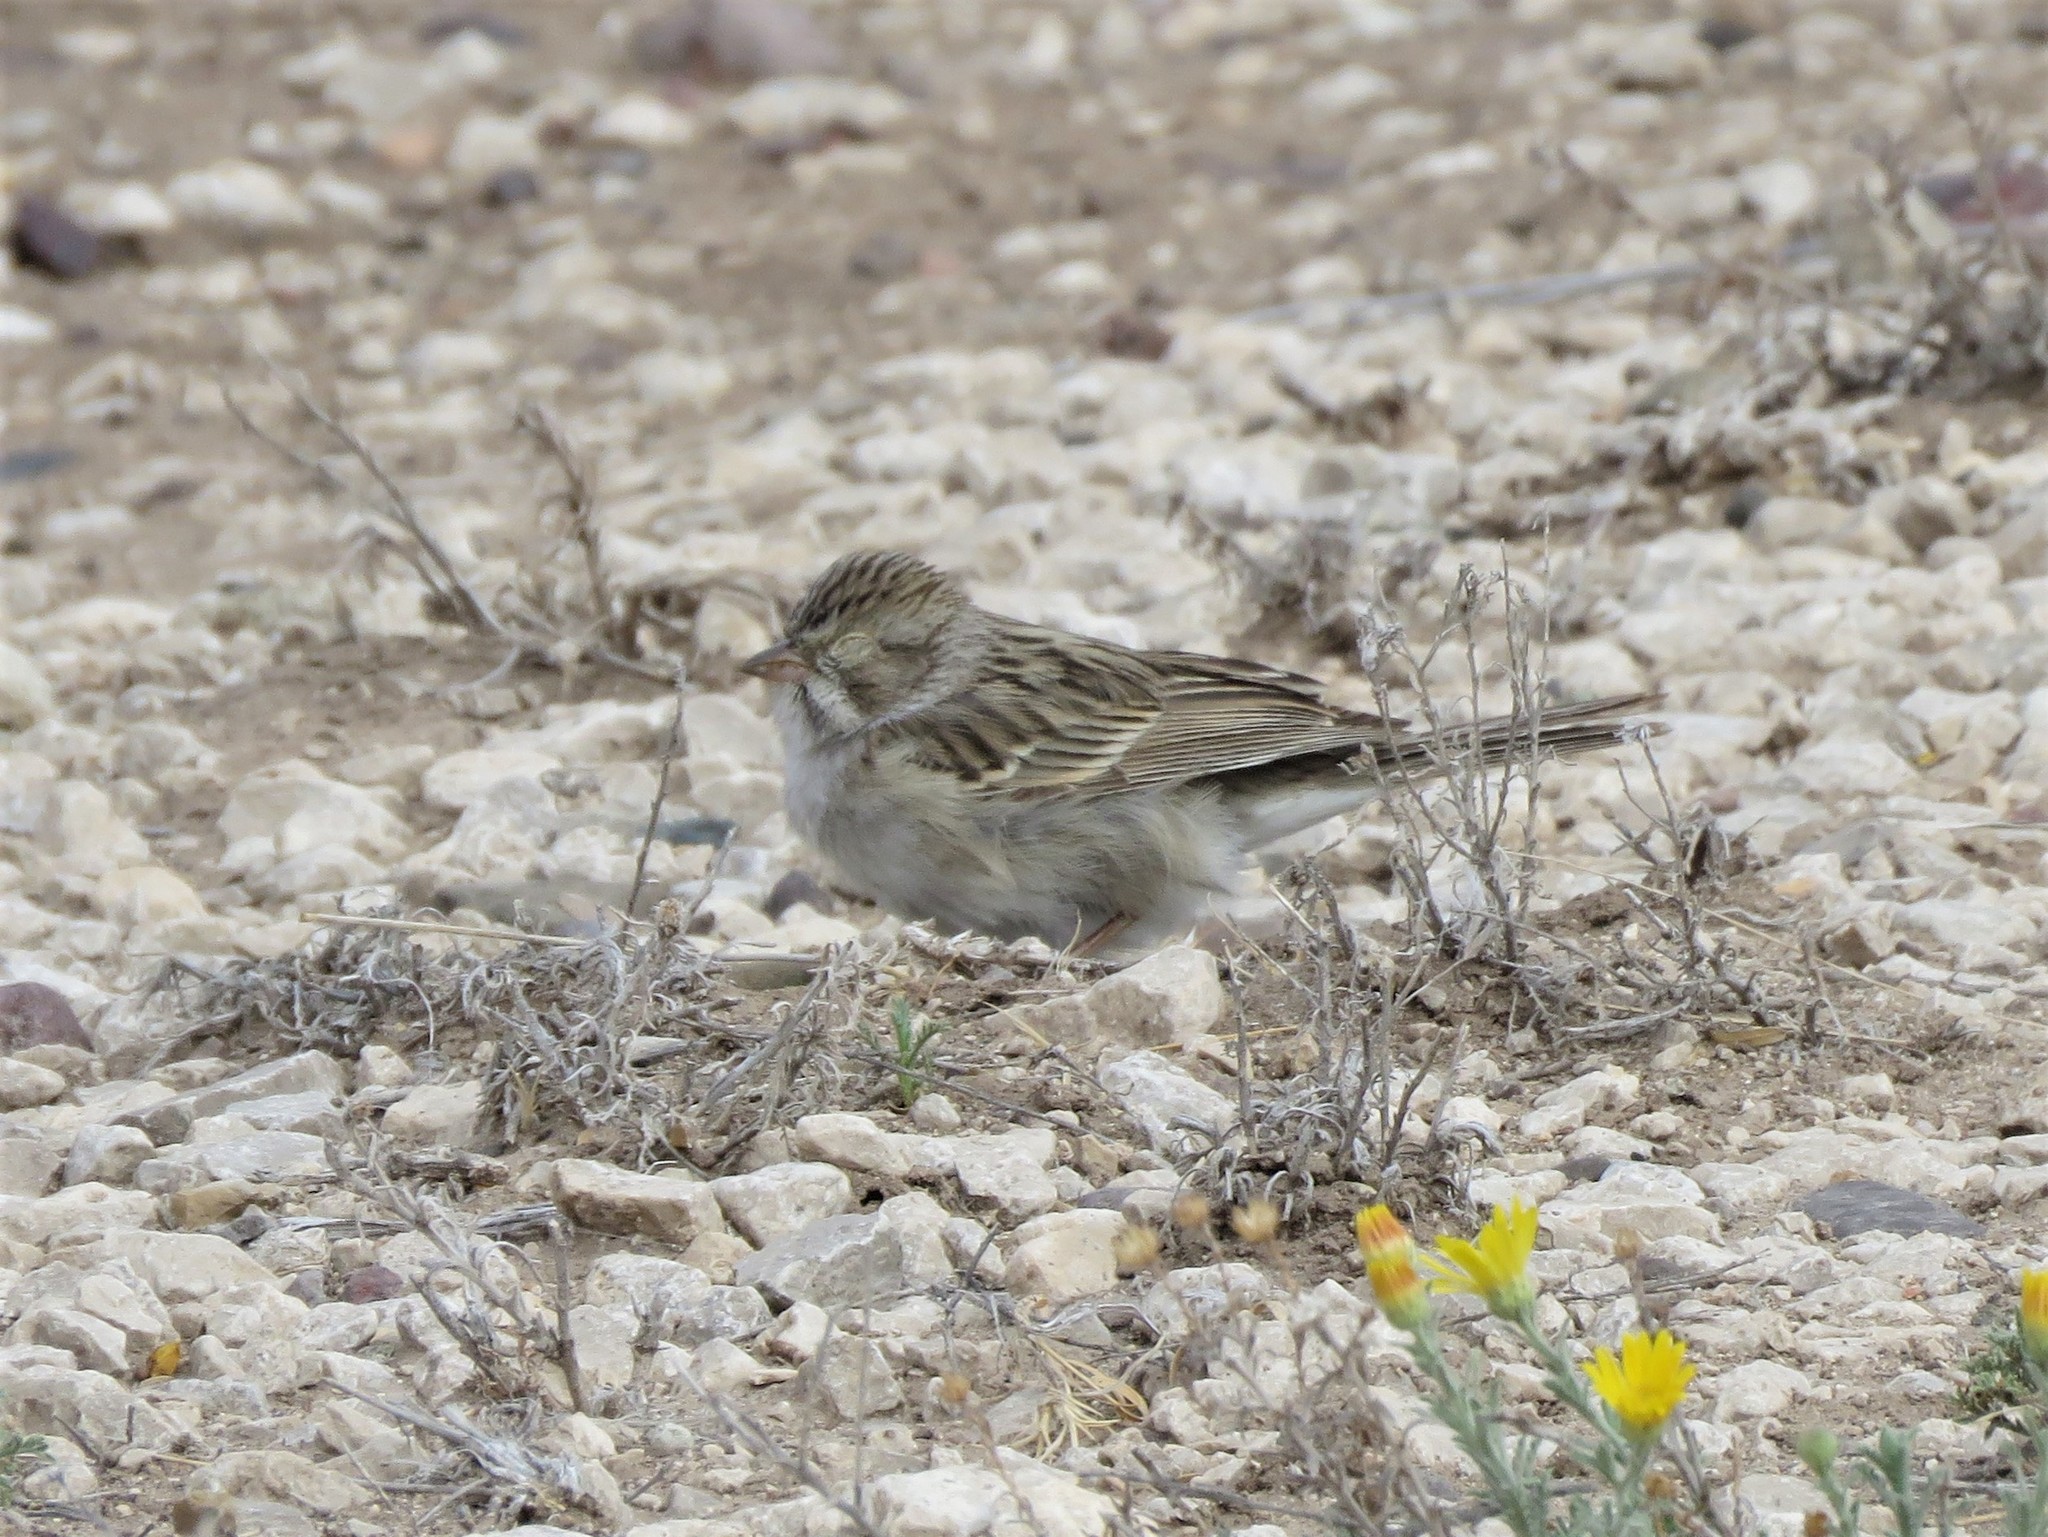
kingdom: Animalia
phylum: Chordata
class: Aves
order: Passeriformes
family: Passerellidae
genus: Spizella
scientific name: Spizella breweri
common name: Brewer's sparrow
